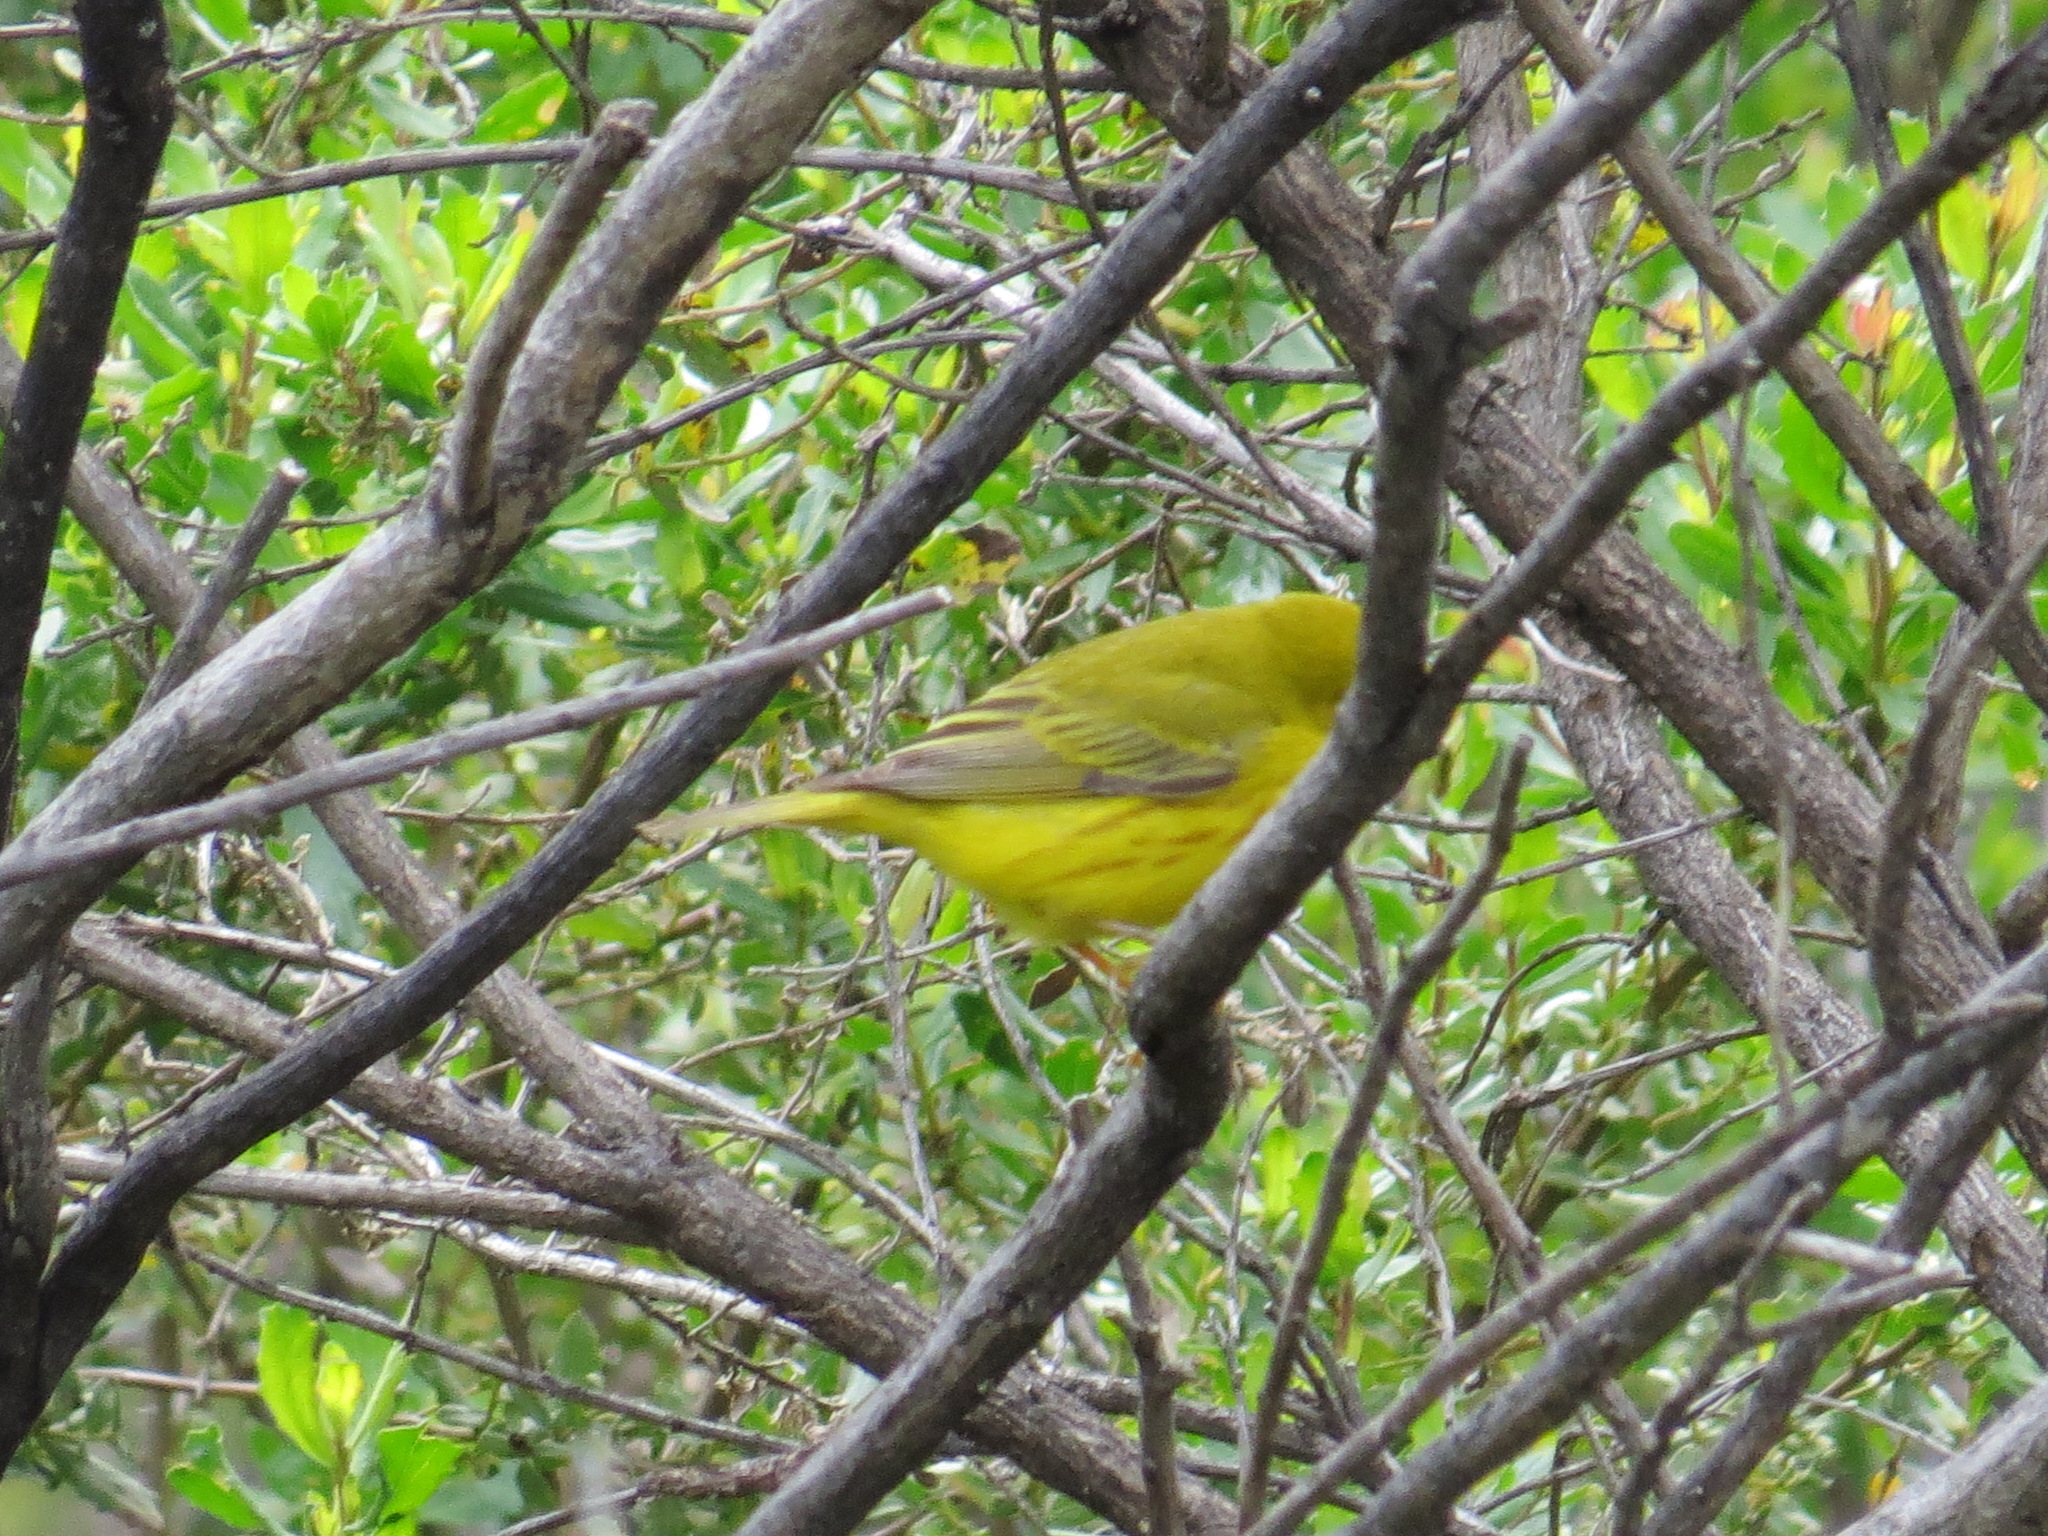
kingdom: Animalia
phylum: Chordata
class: Aves
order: Passeriformes
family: Parulidae
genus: Setophaga
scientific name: Setophaga petechia
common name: Yellow warbler
